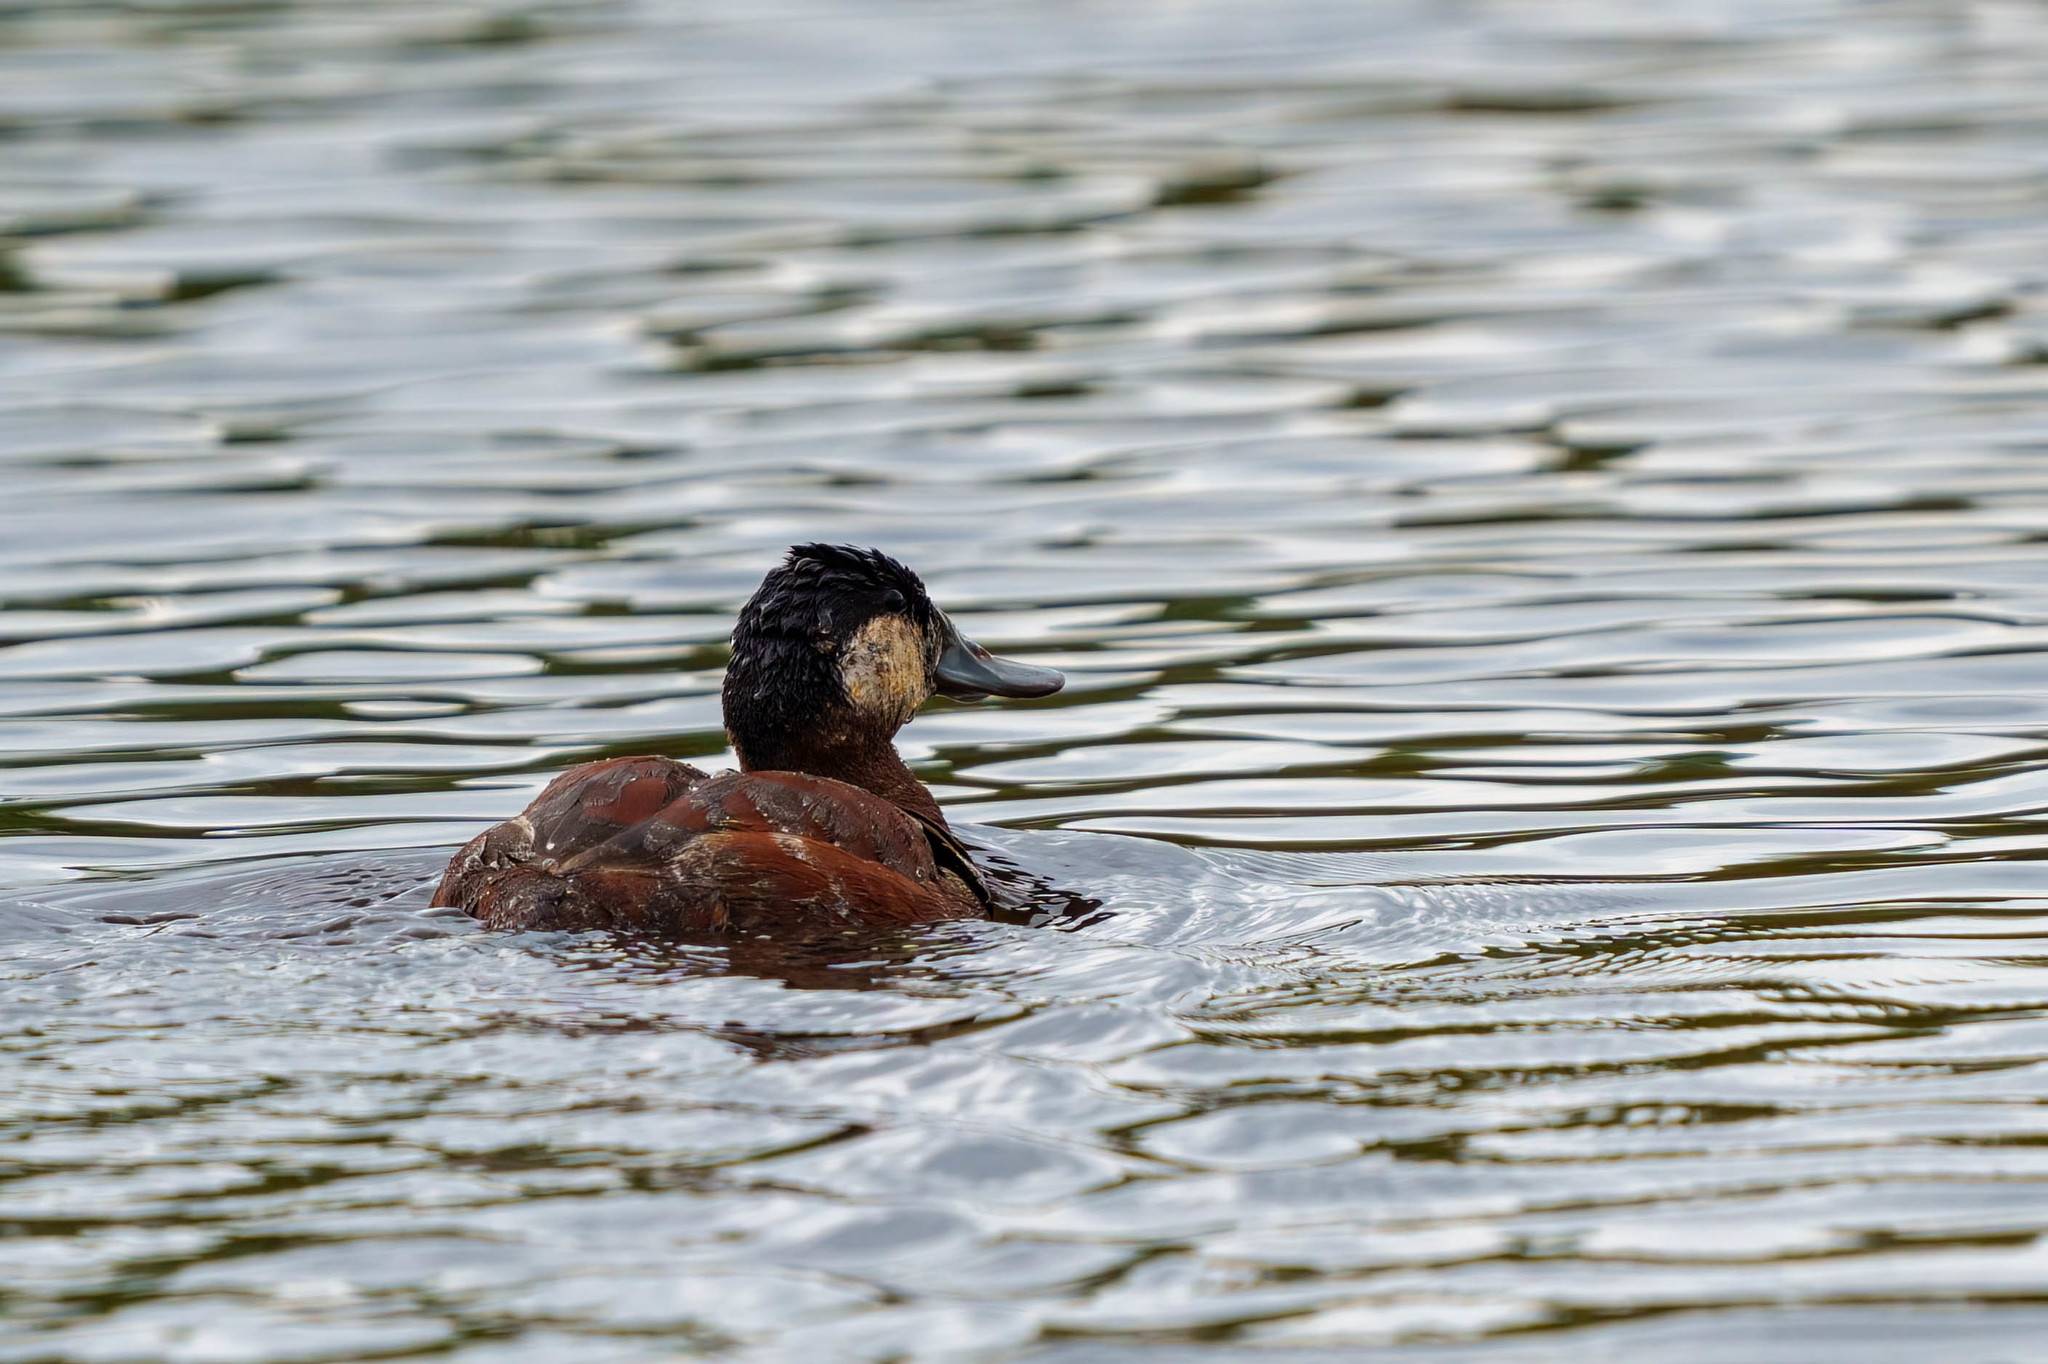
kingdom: Animalia
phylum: Chordata
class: Aves
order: Anseriformes
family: Anatidae
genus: Oxyura
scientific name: Oxyura jamaicensis
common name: Ruddy duck
